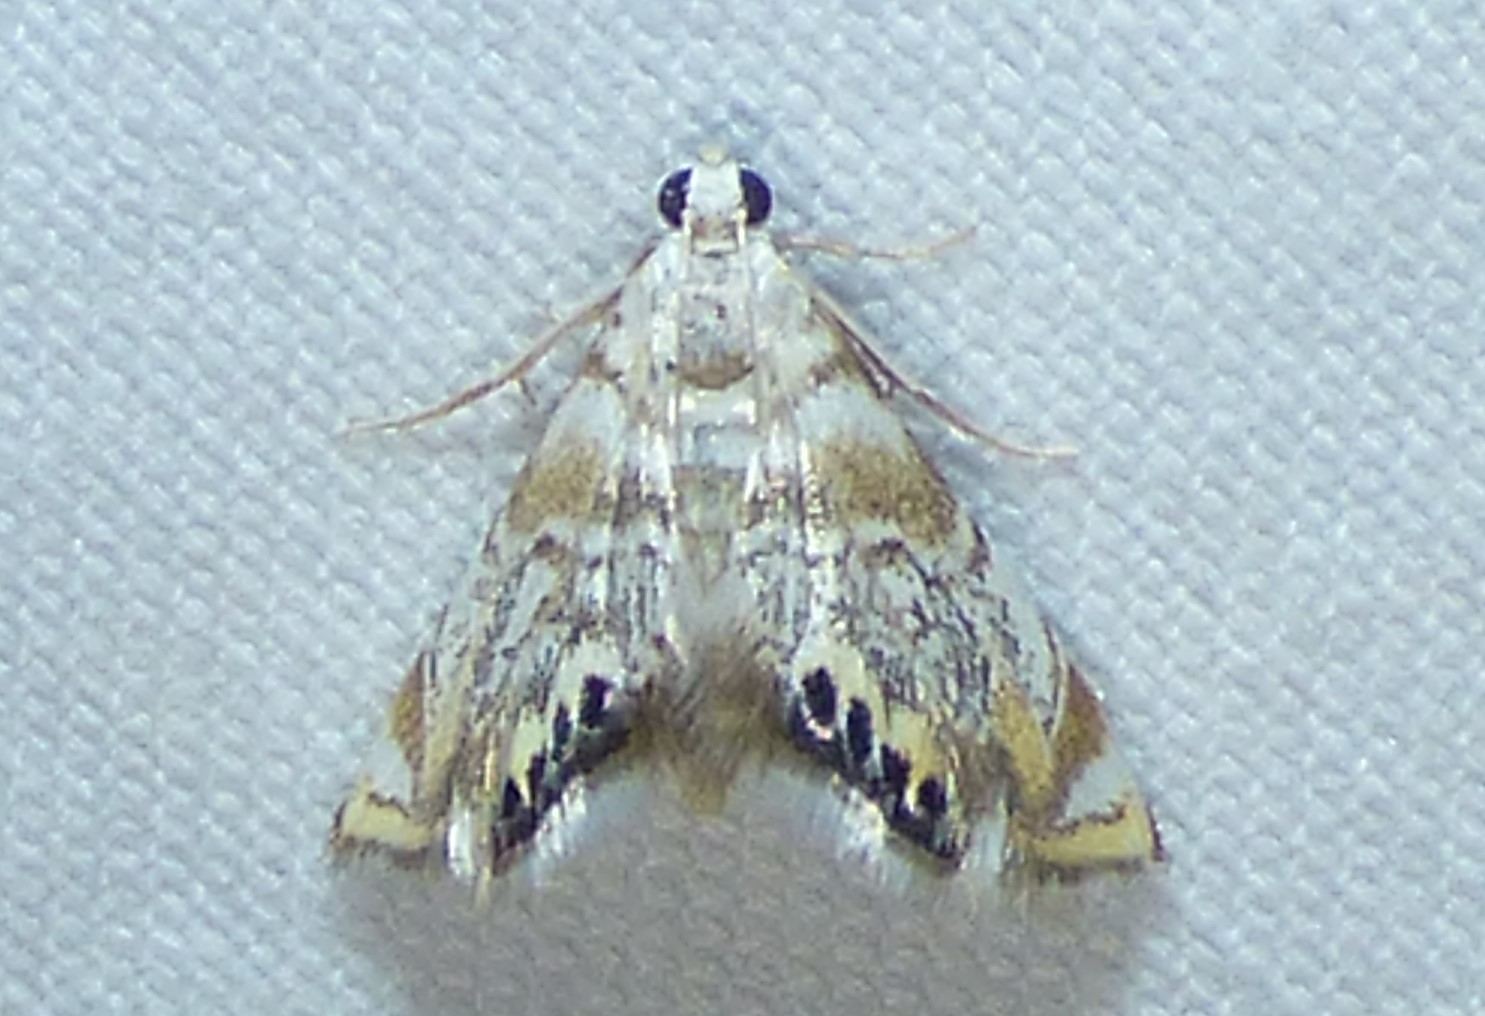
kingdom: Animalia
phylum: Arthropoda
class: Insecta
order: Lepidoptera
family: Crambidae
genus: Eoparargyractis
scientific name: Eoparargyractis irroratalis
